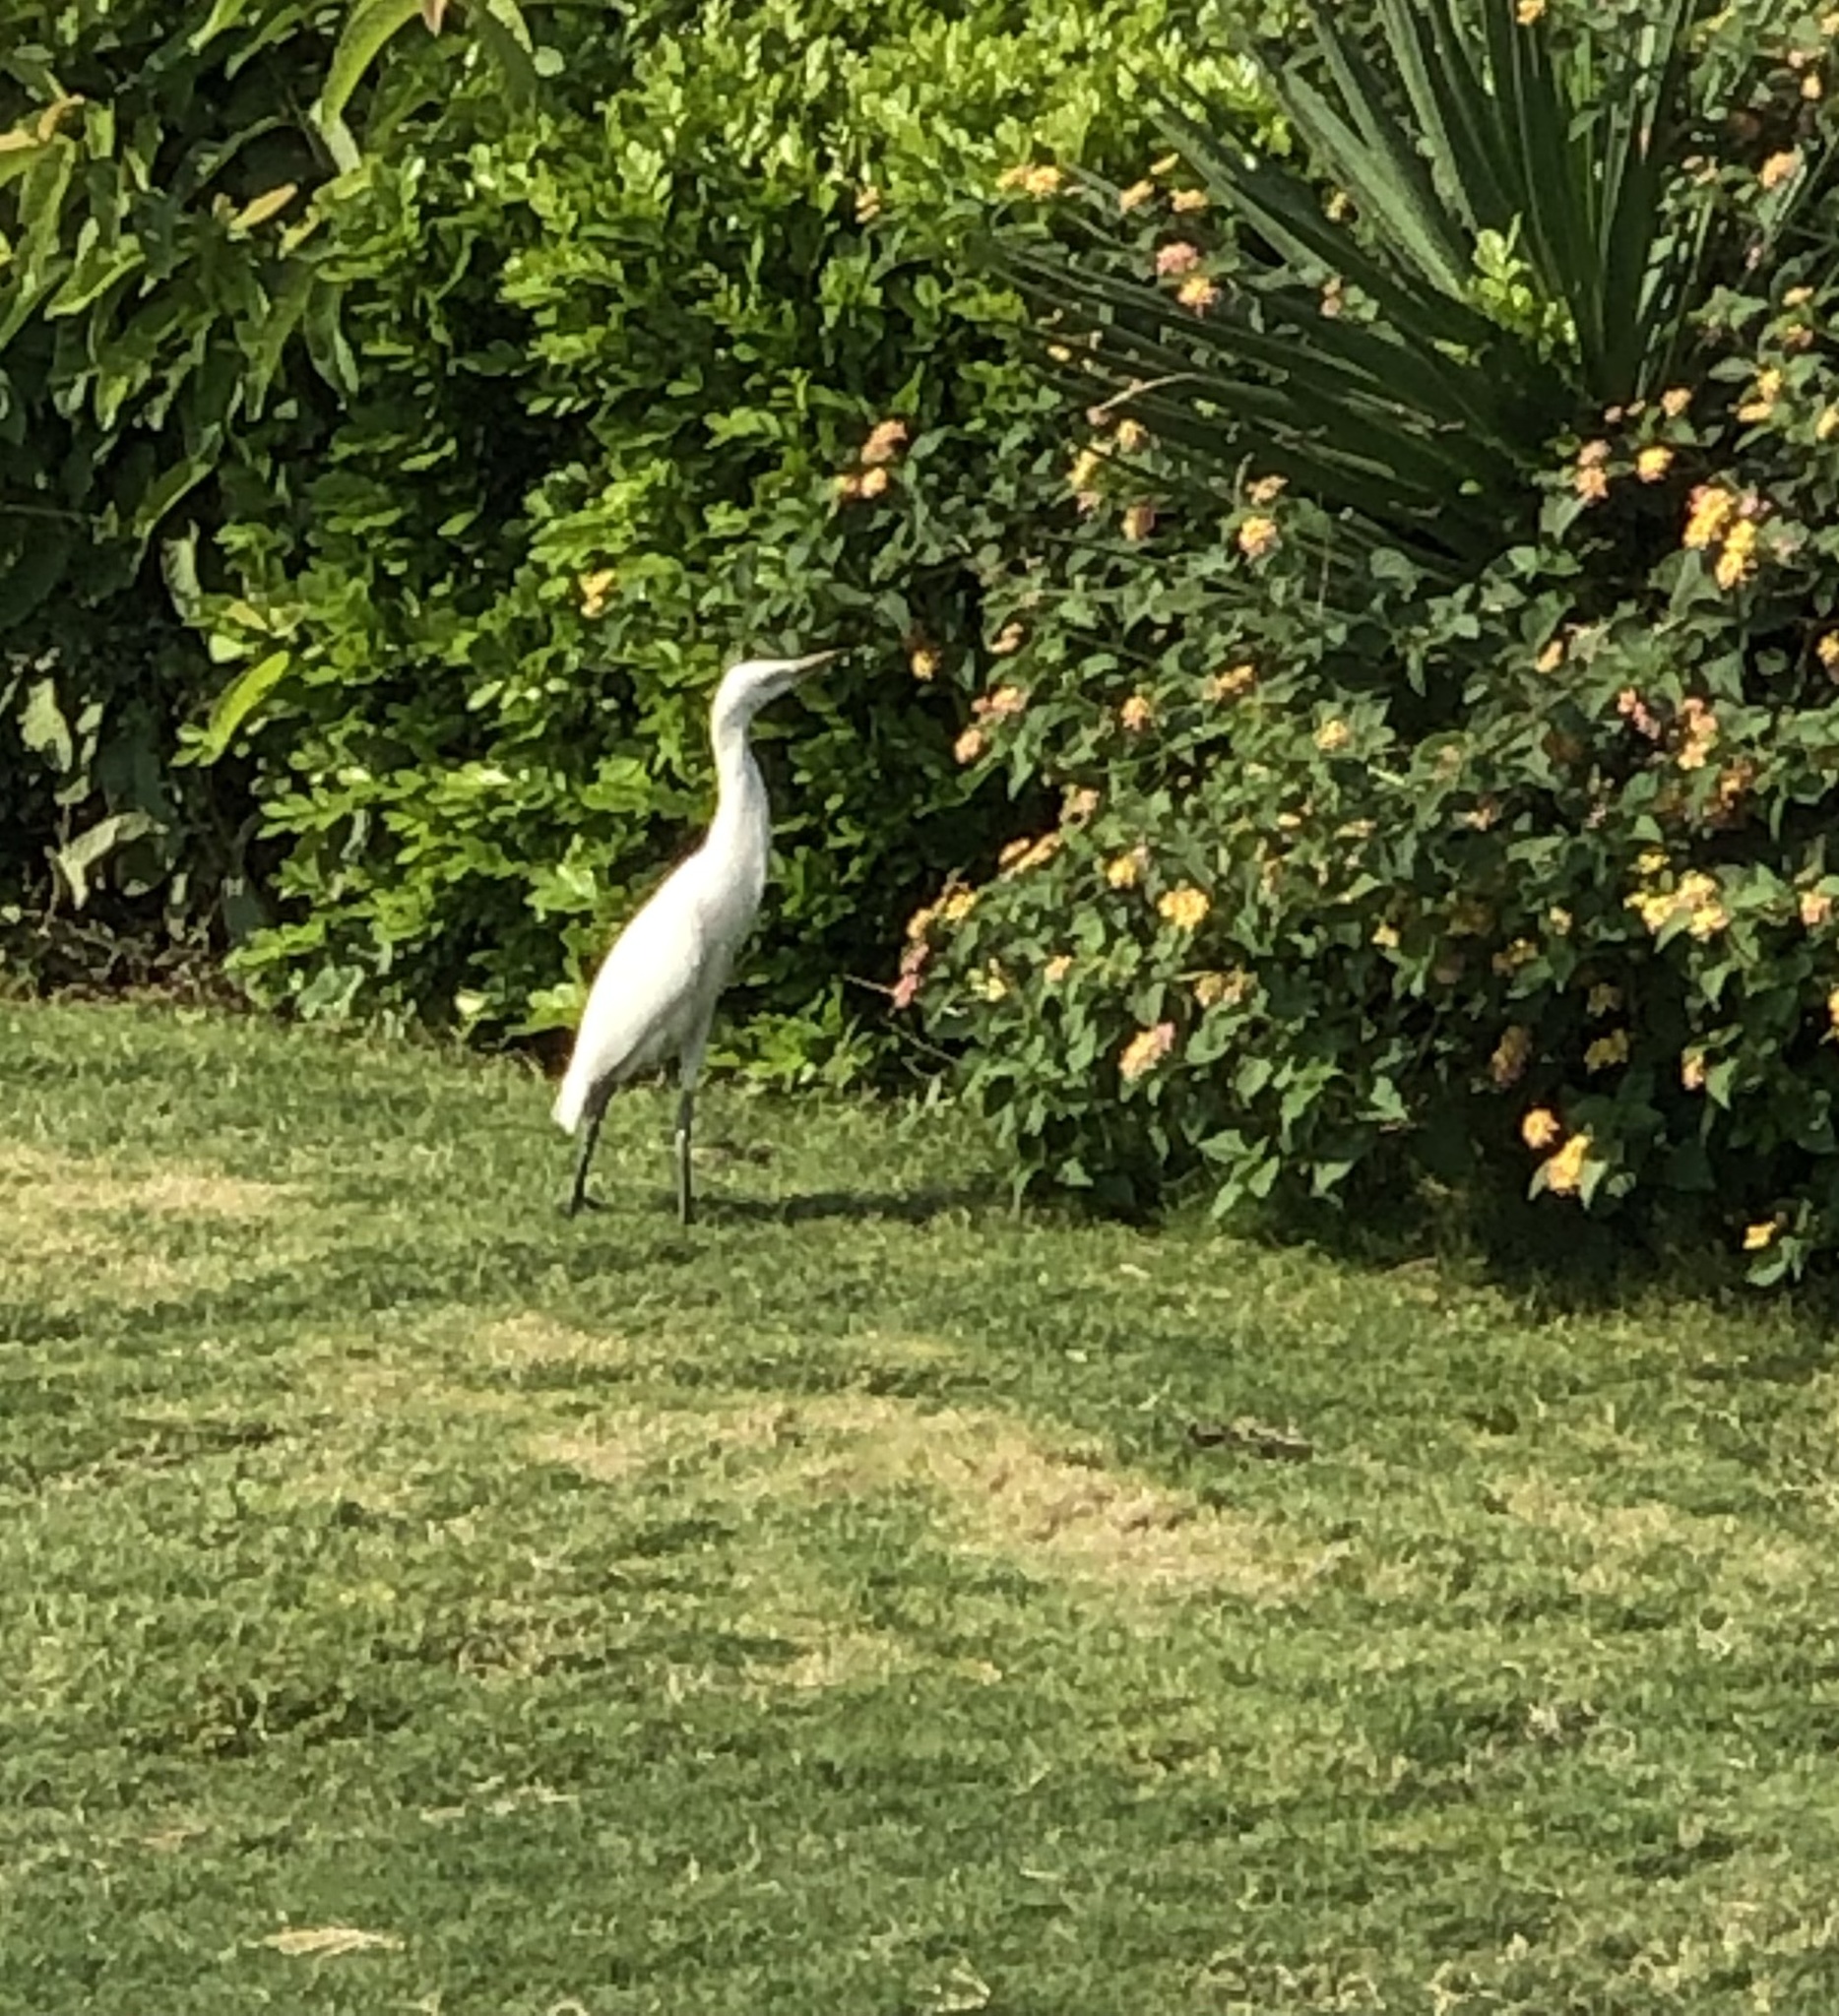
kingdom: Animalia
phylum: Chordata
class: Aves
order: Pelecaniformes
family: Ardeidae
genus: Bubulcus
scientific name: Bubulcus ibis
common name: Cattle egret
